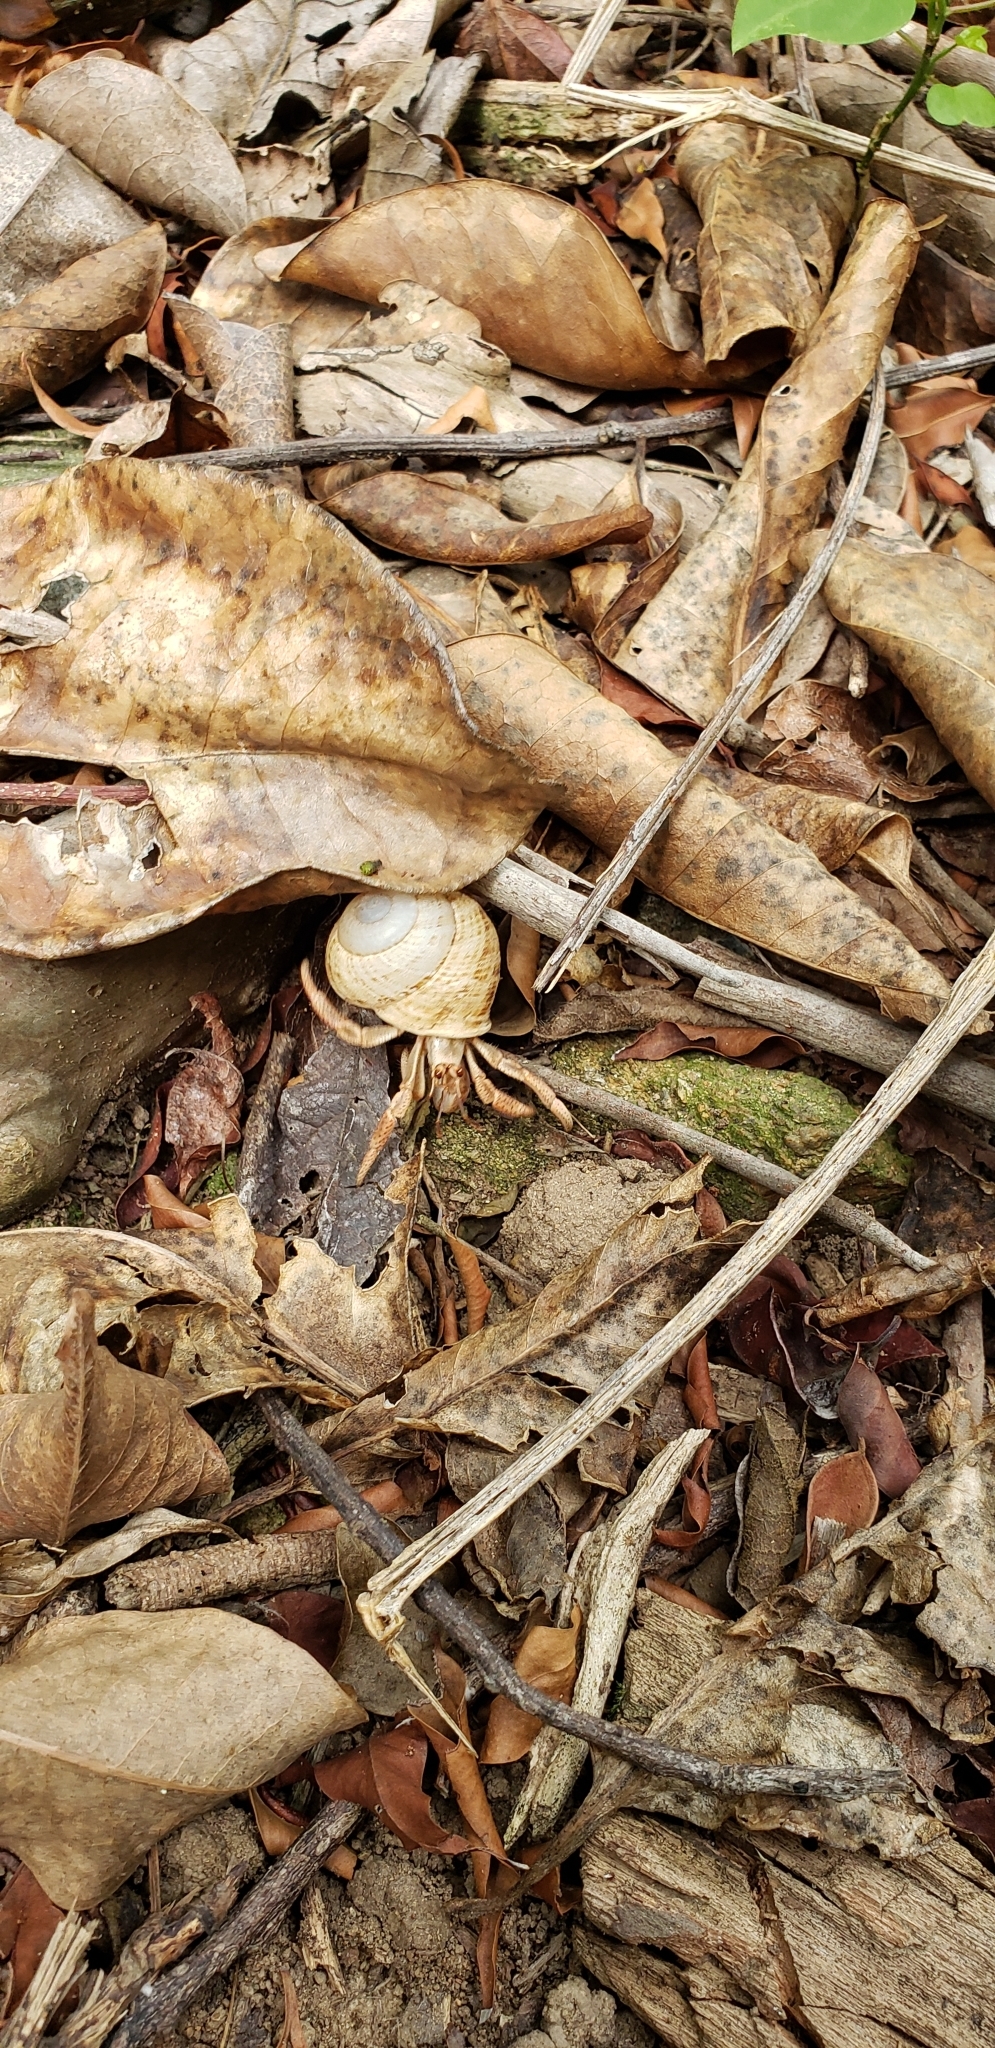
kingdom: Animalia
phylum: Arthropoda
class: Malacostraca
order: Decapoda
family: Coenobitidae
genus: Coenobita
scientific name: Coenobita clypeatus
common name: Caribbean hermit crab
